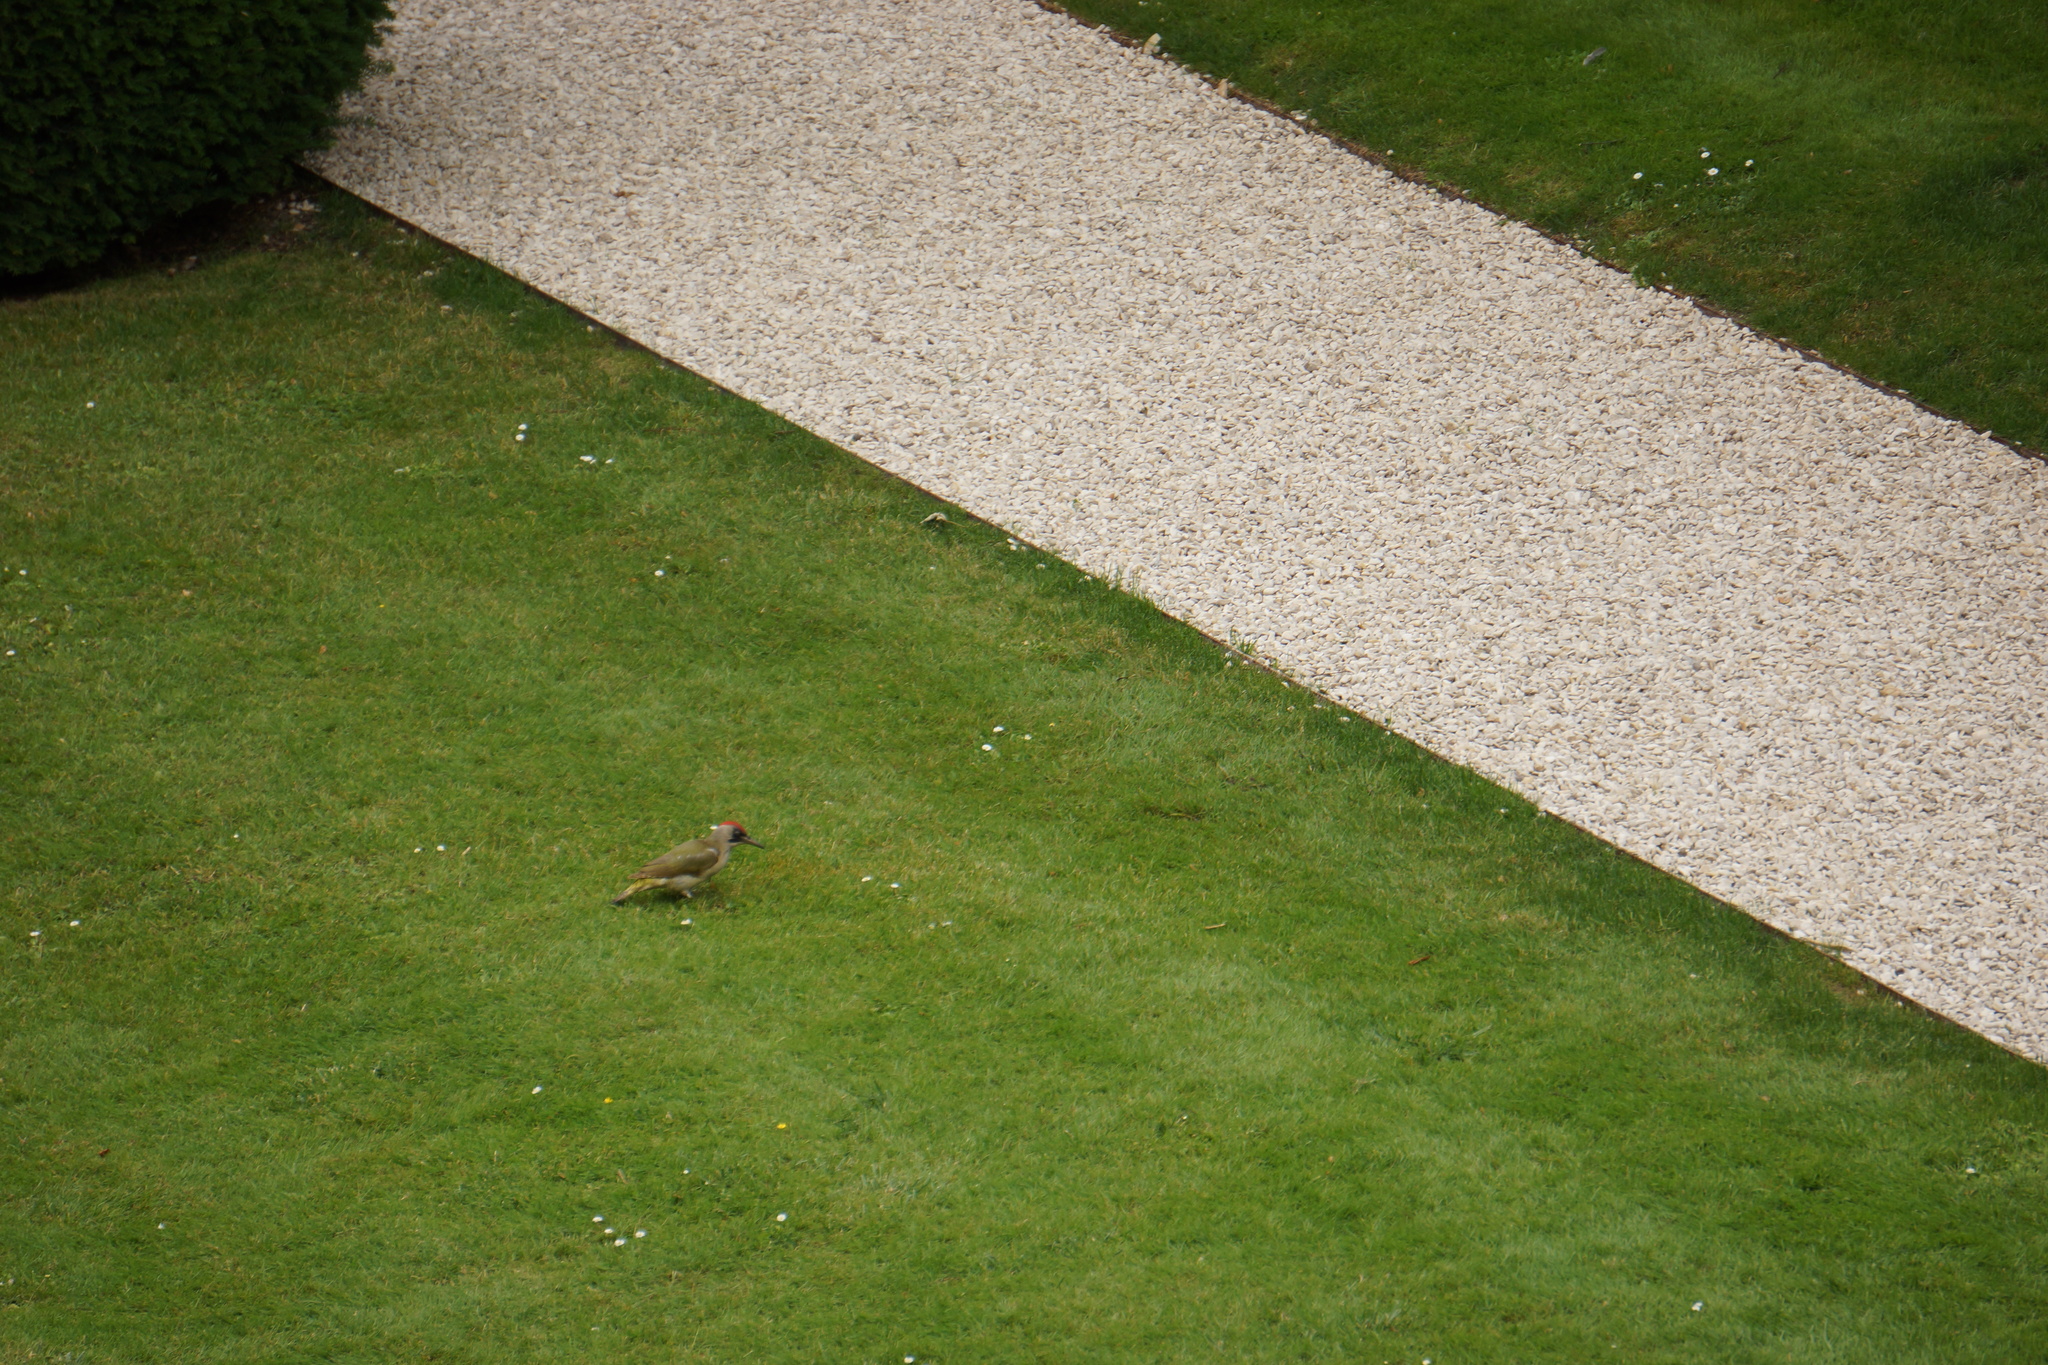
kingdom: Animalia
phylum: Chordata
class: Aves
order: Piciformes
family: Picidae
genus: Picus
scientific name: Picus viridis
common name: European green woodpecker
